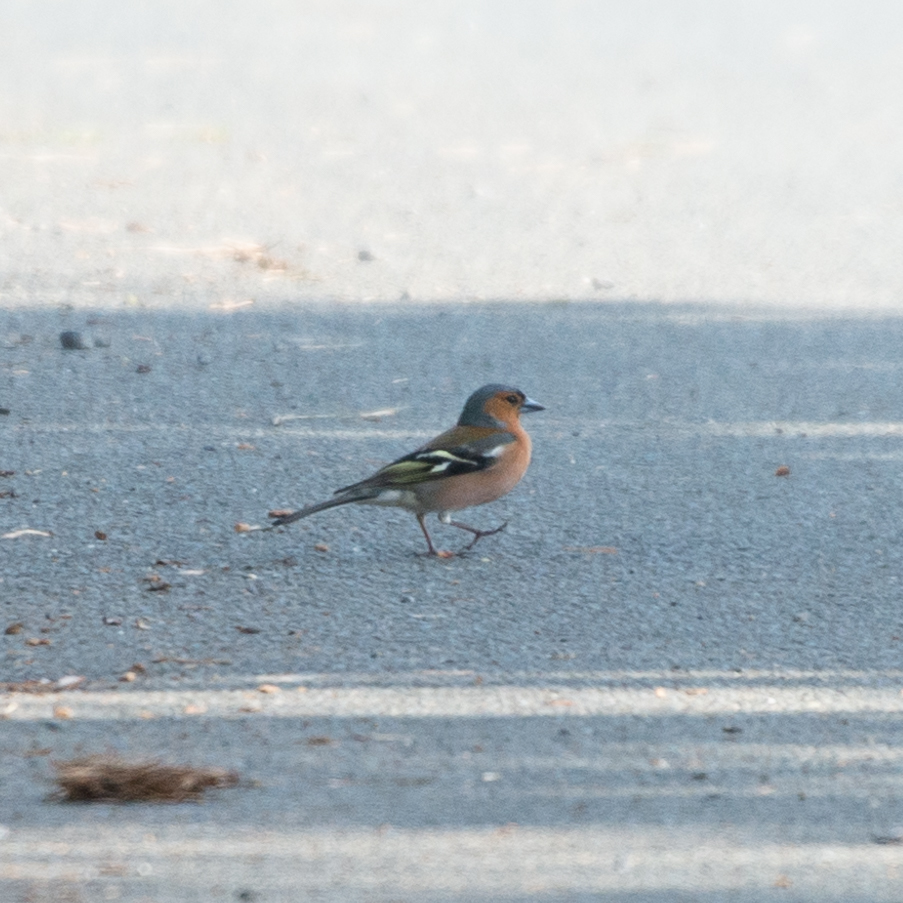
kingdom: Animalia
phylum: Chordata
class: Aves
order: Passeriformes
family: Fringillidae
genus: Fringilla
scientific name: Fringilla coelebs
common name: Common chaffinch
